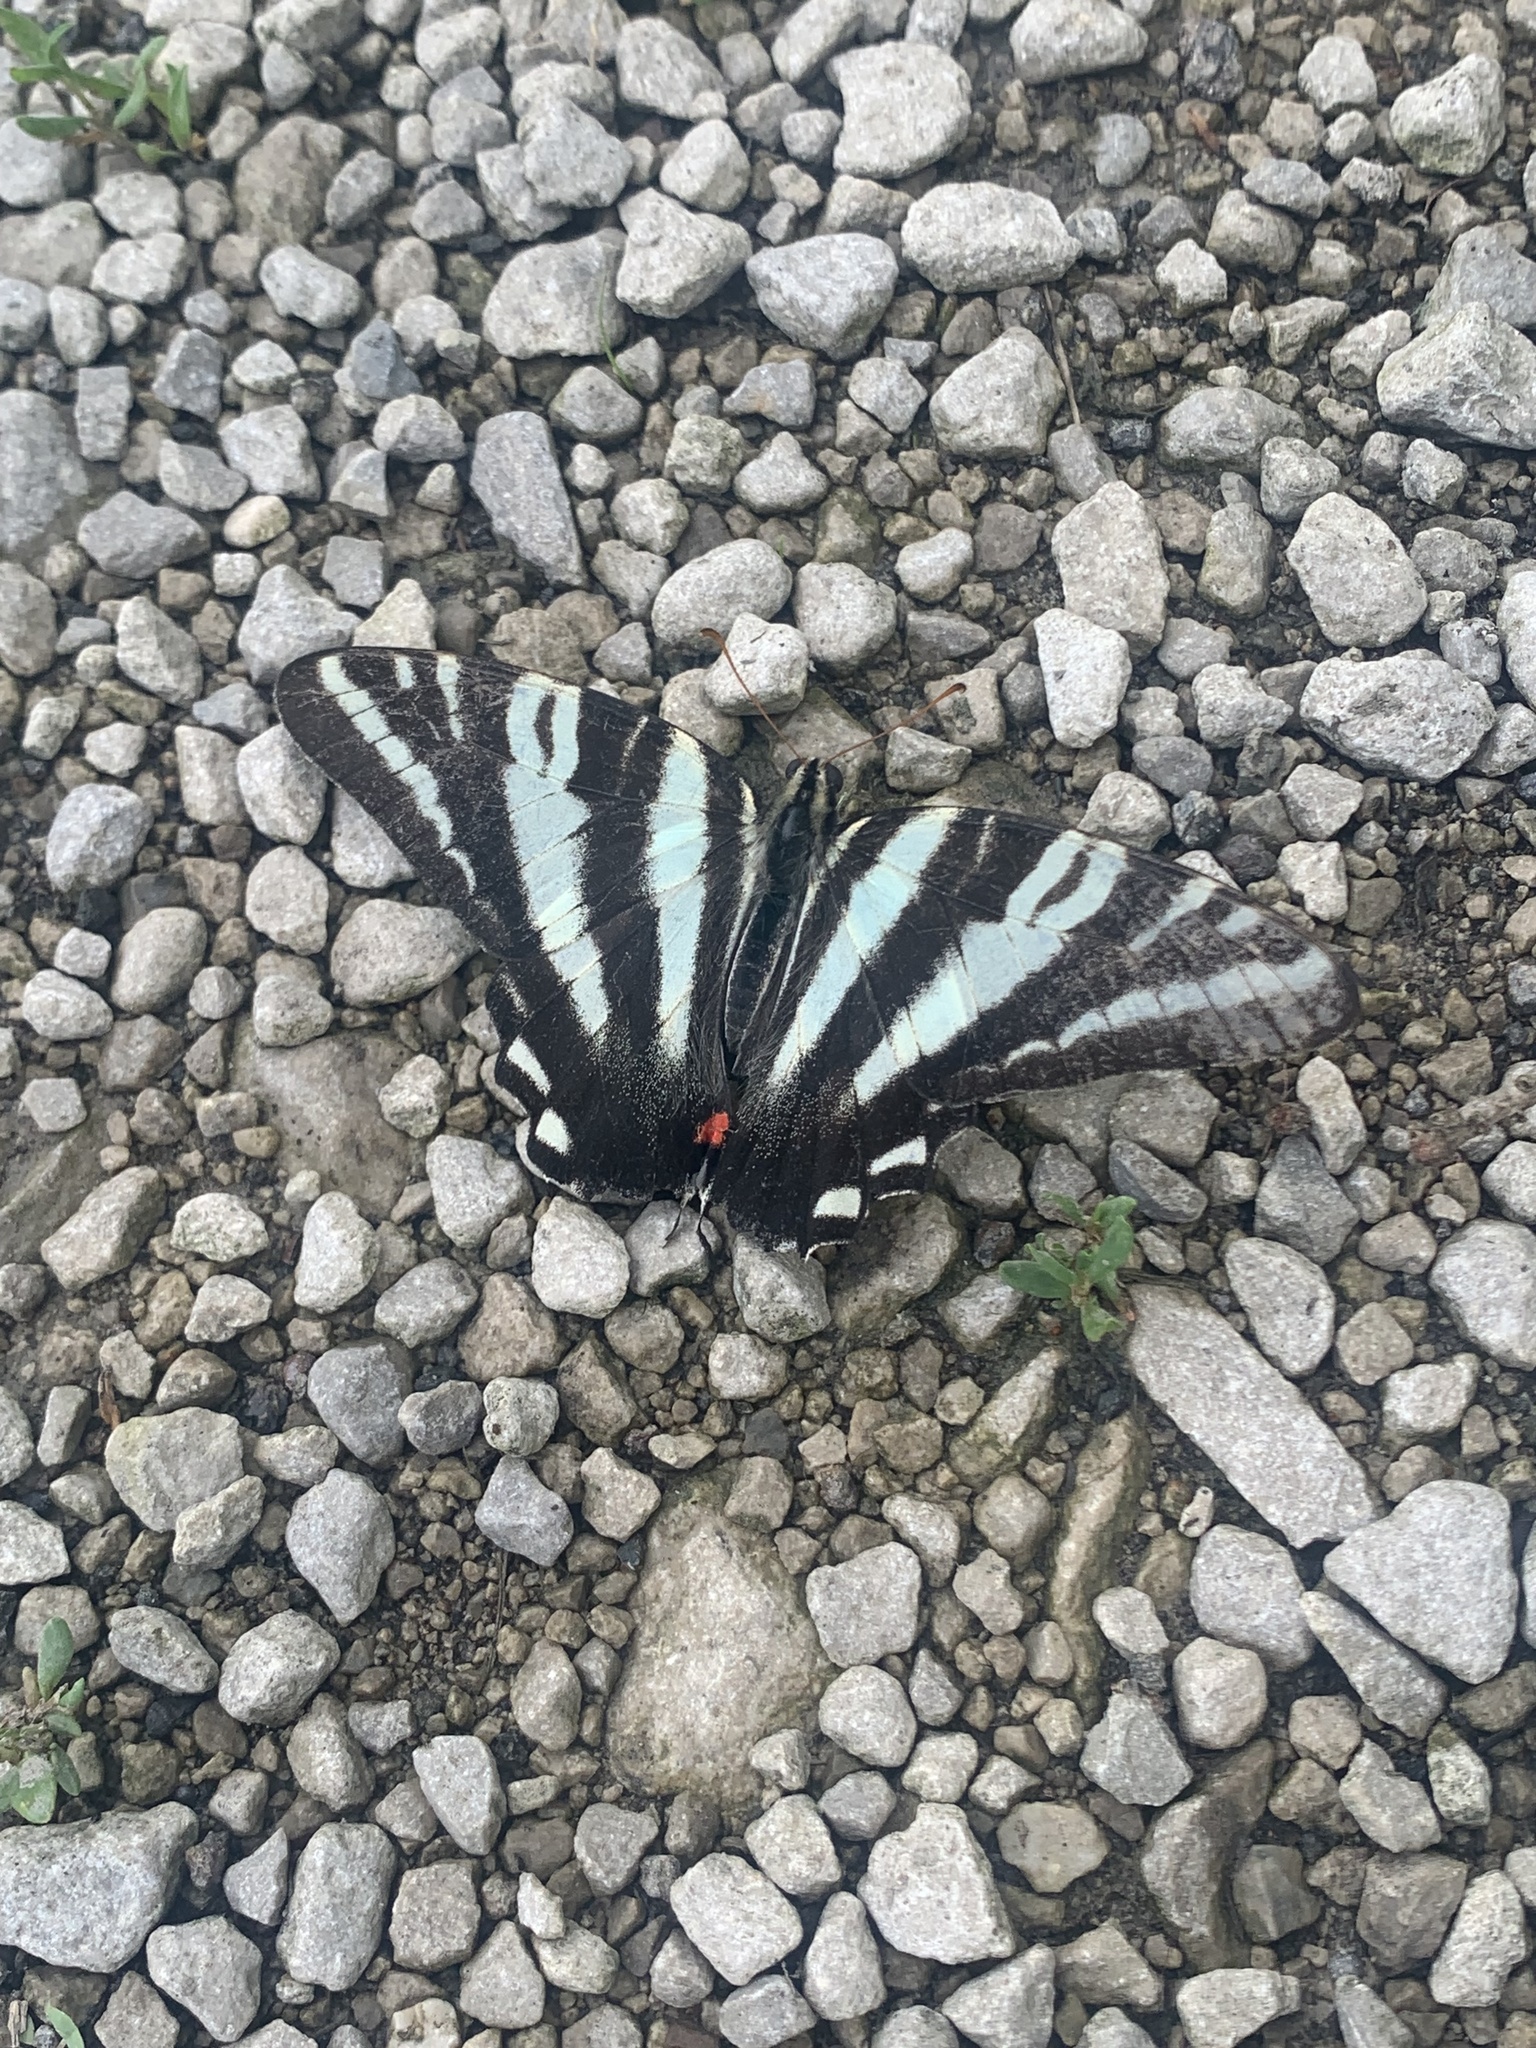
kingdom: Animalia
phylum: Arthropoda
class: Insecta
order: Lepidoptera
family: Papilionidae
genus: Protographium
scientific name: Protographium marcellus
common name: Zebra swallowtail
